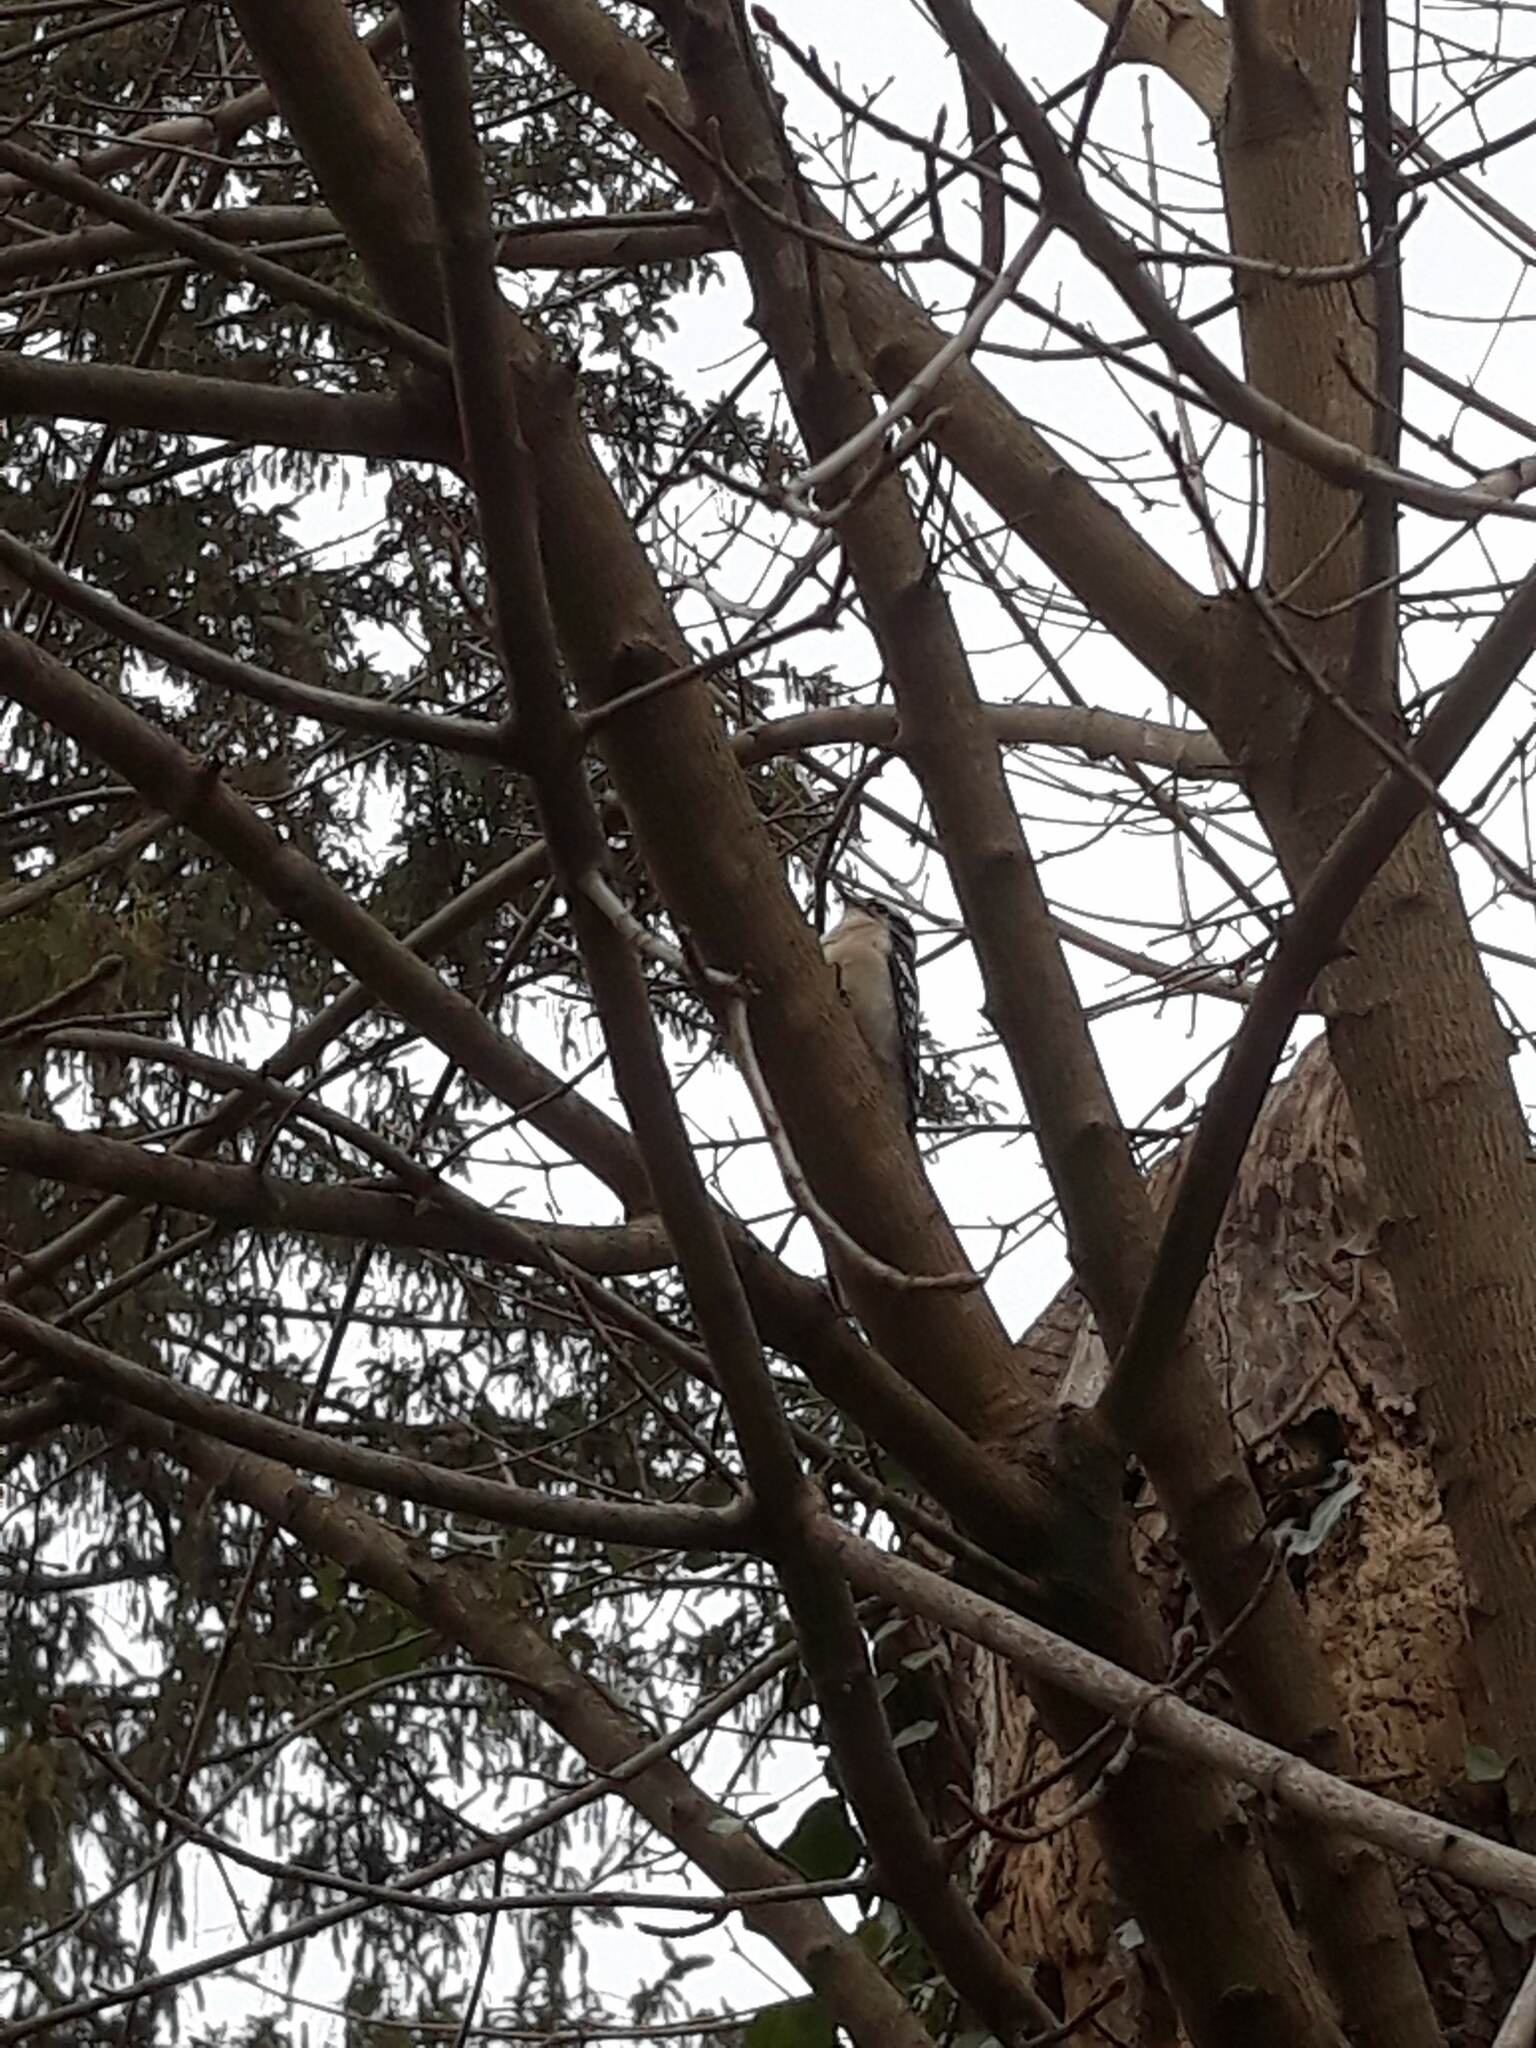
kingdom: Animalia
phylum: Chordata
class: Aves
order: Piciformes
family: Picidae
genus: Dryobates
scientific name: Dryobates pubescens
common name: Downy woodpecker
